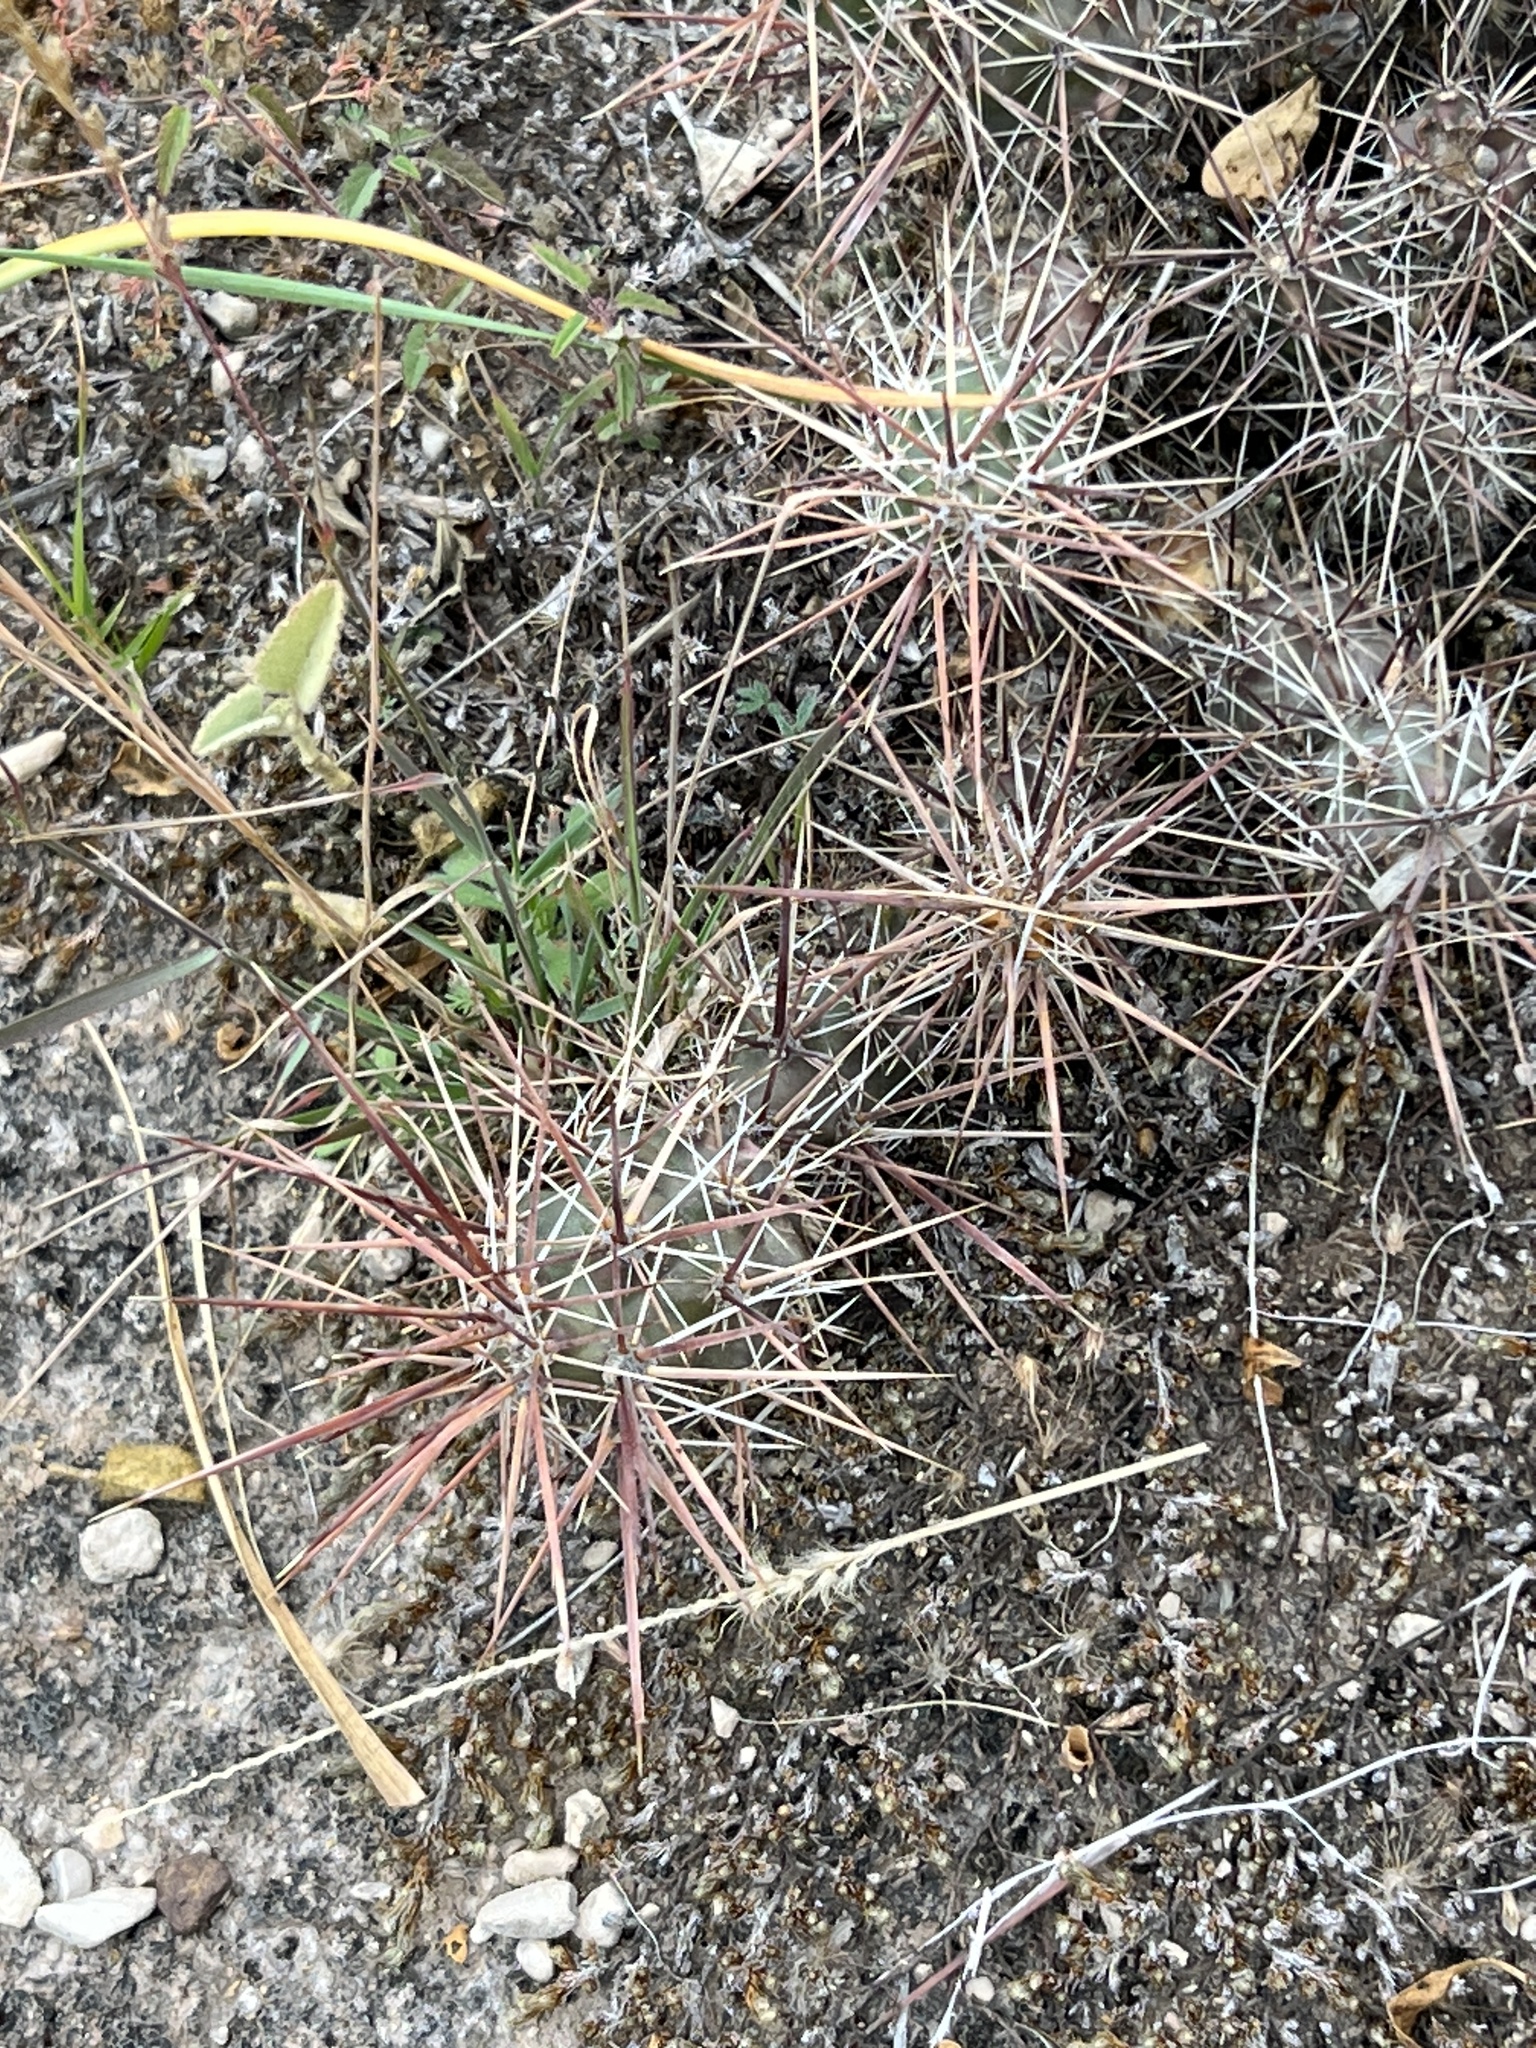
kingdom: Plantae
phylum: Tracheophyta
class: Magnoliopsida
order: Caryophyllales
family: Cactaceae
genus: Grusonia
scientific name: Grusonia schottii
